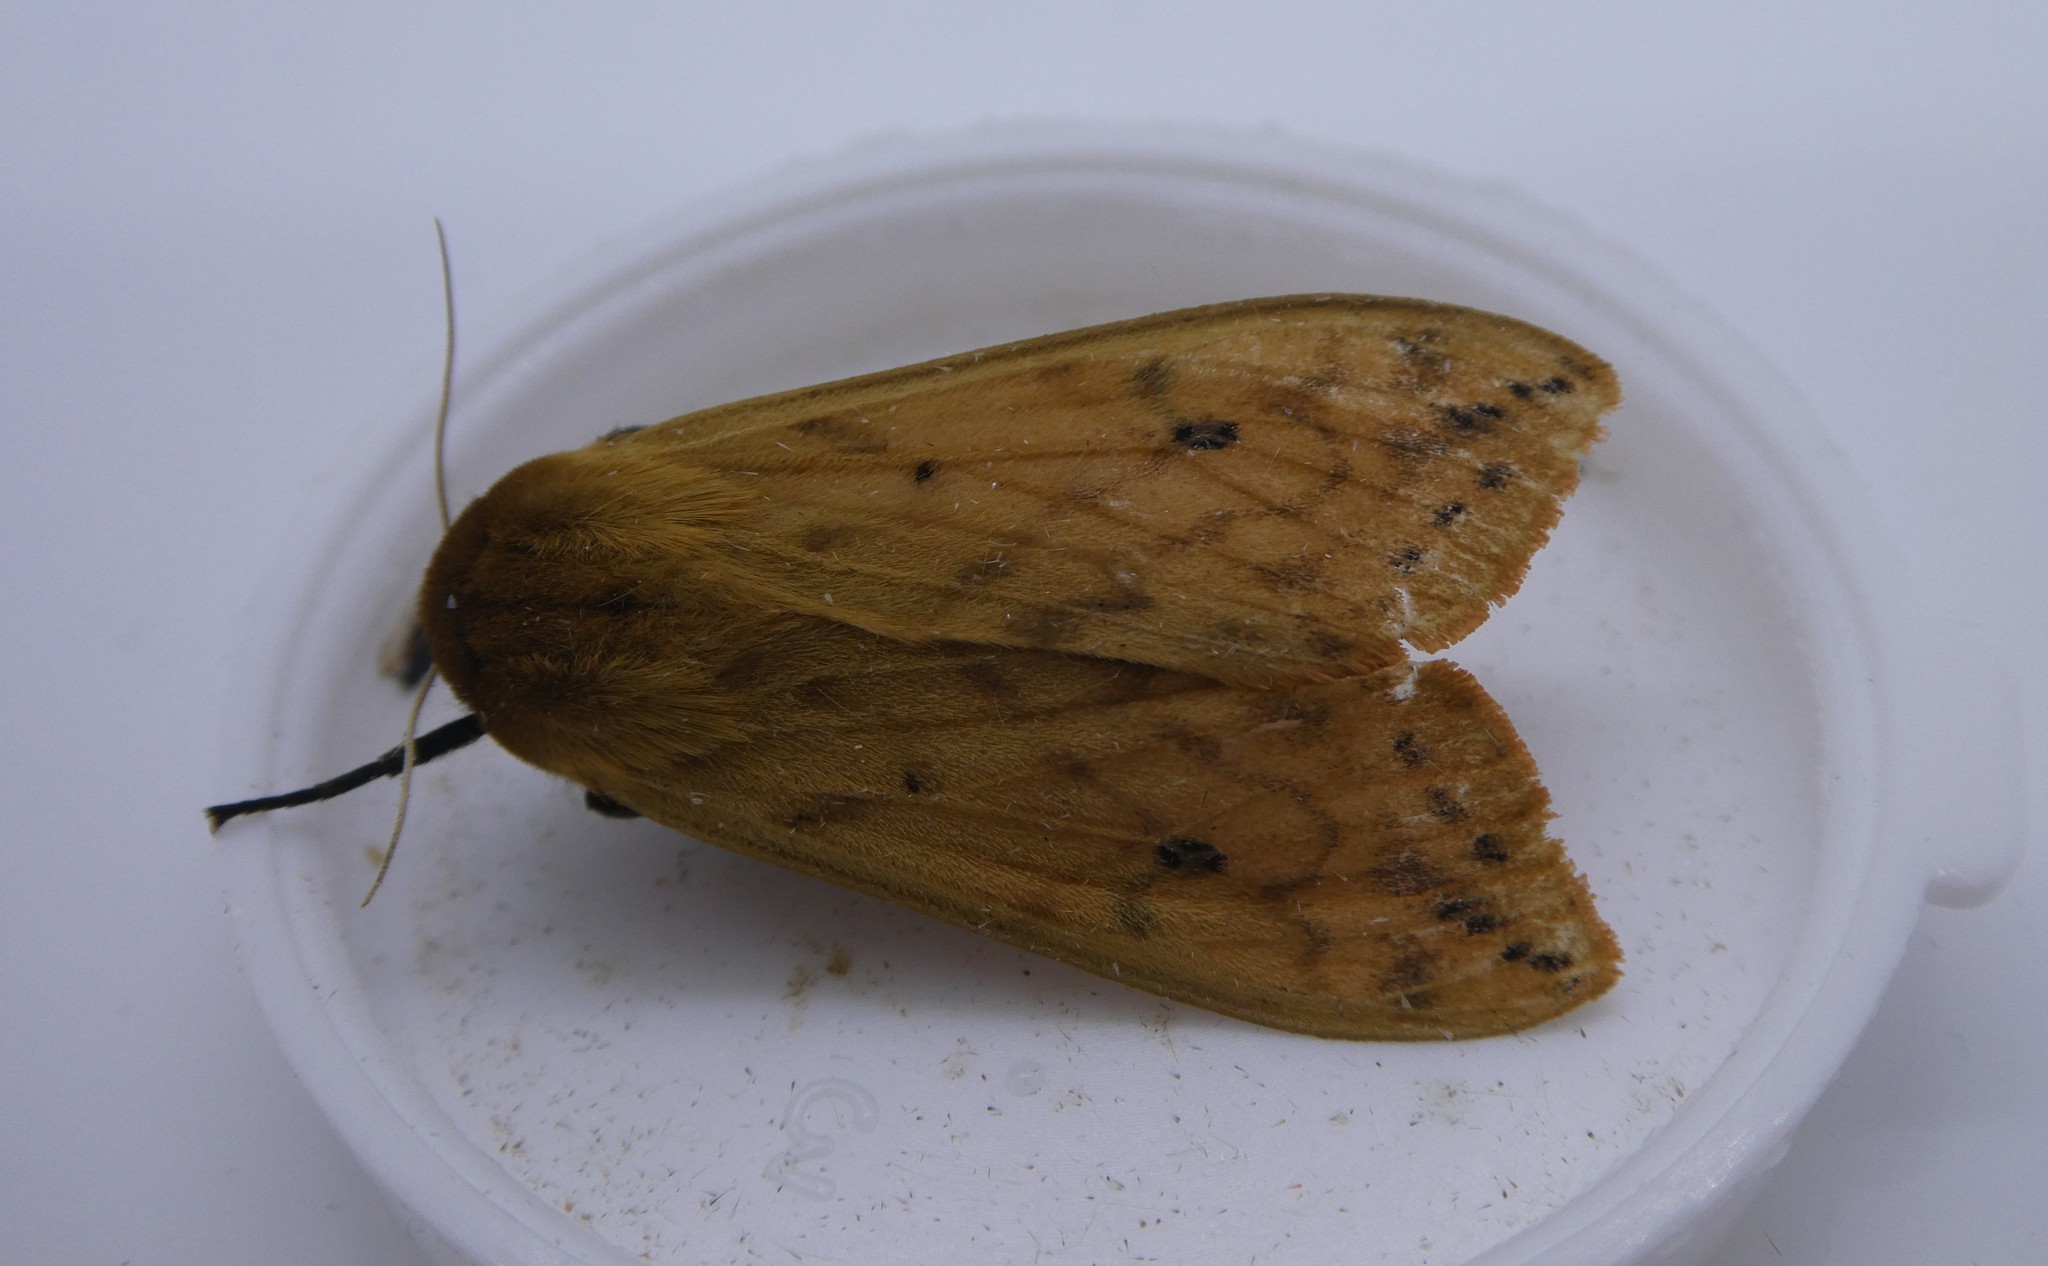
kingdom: Animalia
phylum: Arthropoda
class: Insecta
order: Lepidoptera
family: Erebidae
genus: Pyrrharctia
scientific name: Pyrrharctia isabella
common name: Isabella tiger moth
